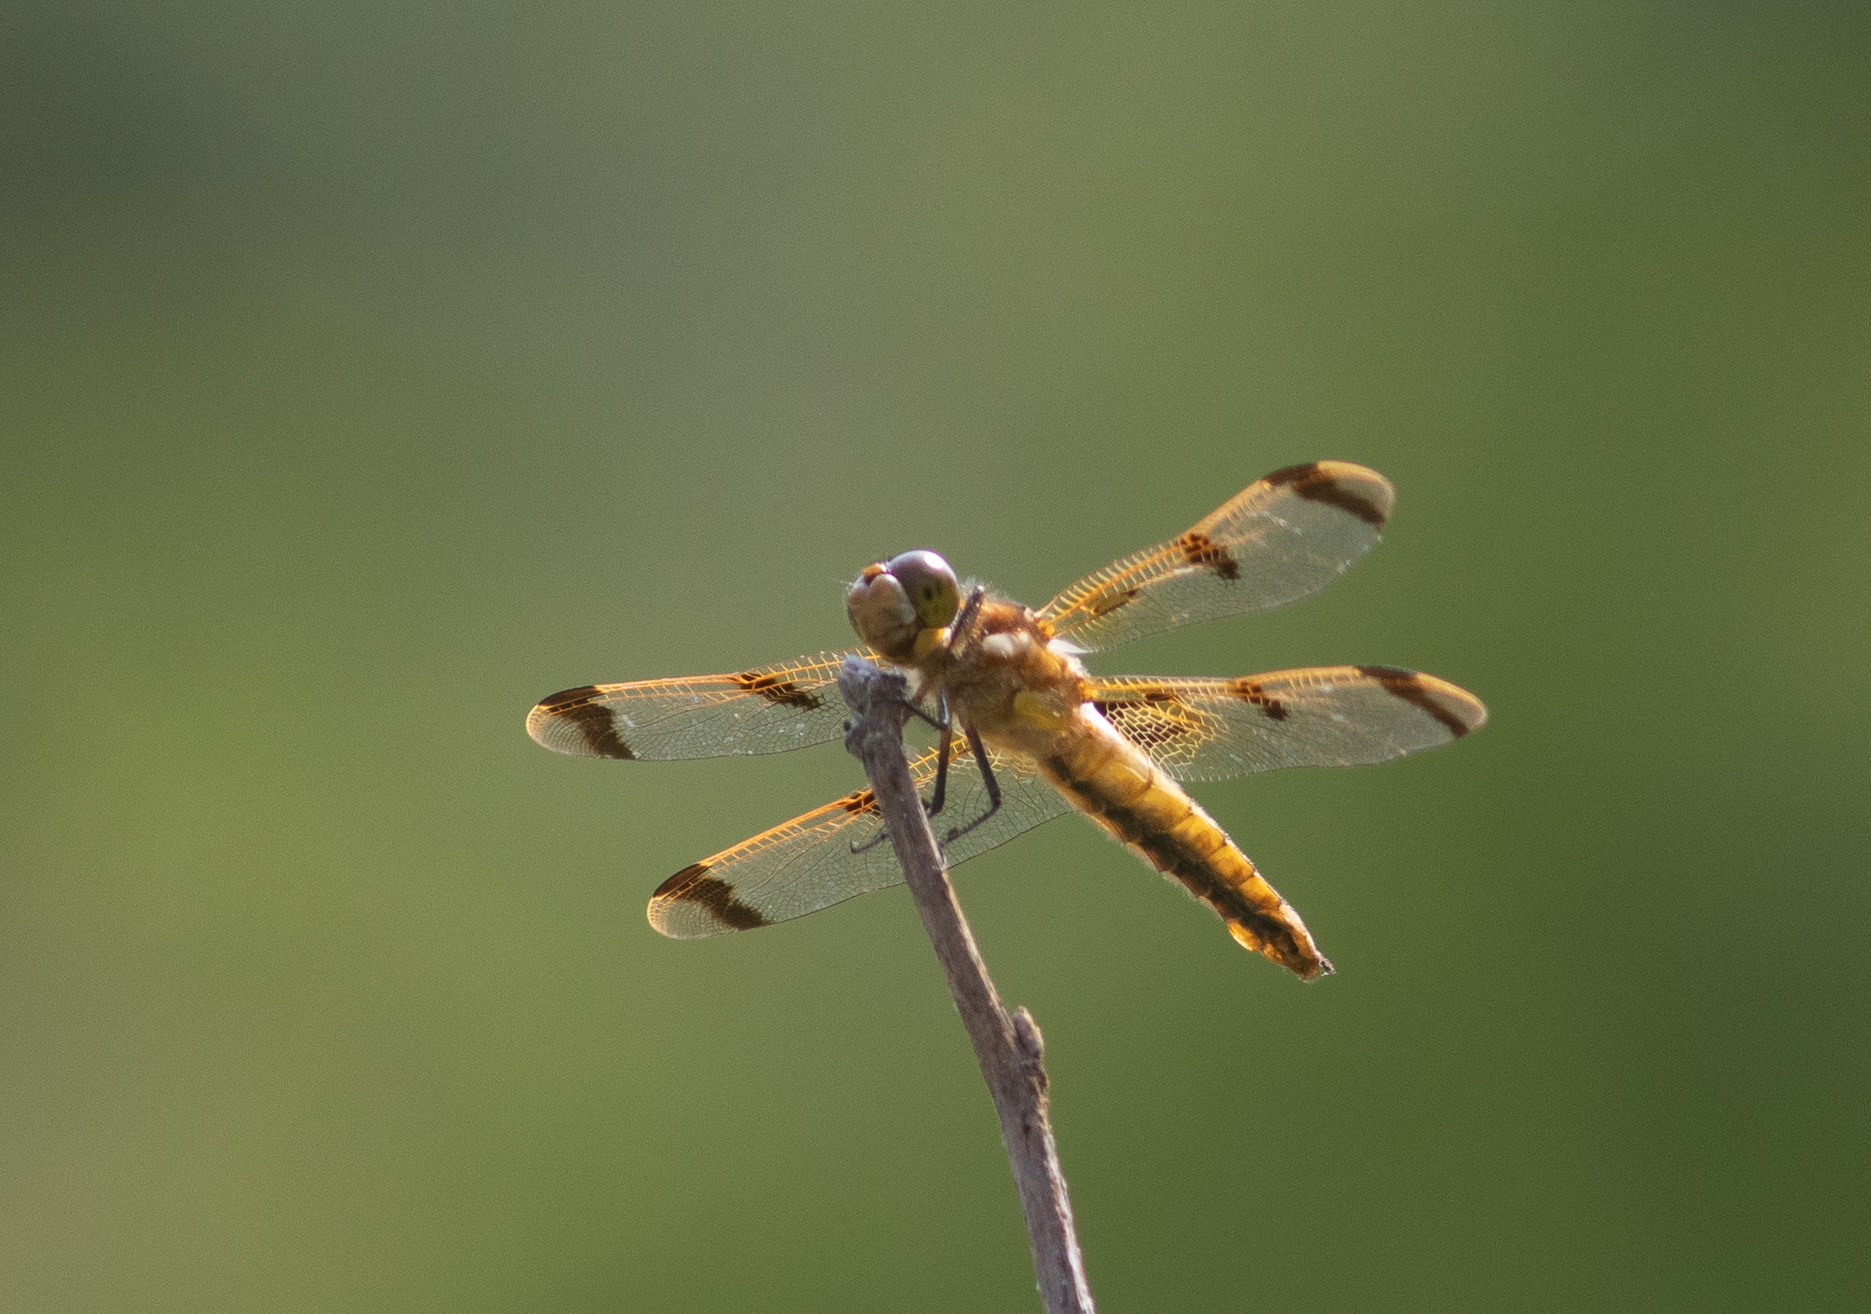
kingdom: Animalia
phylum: Arthropoda
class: Insecta
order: Odonata
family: Libellulidae
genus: Libellula
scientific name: Libellula semifasciata
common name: Painted skimmer
